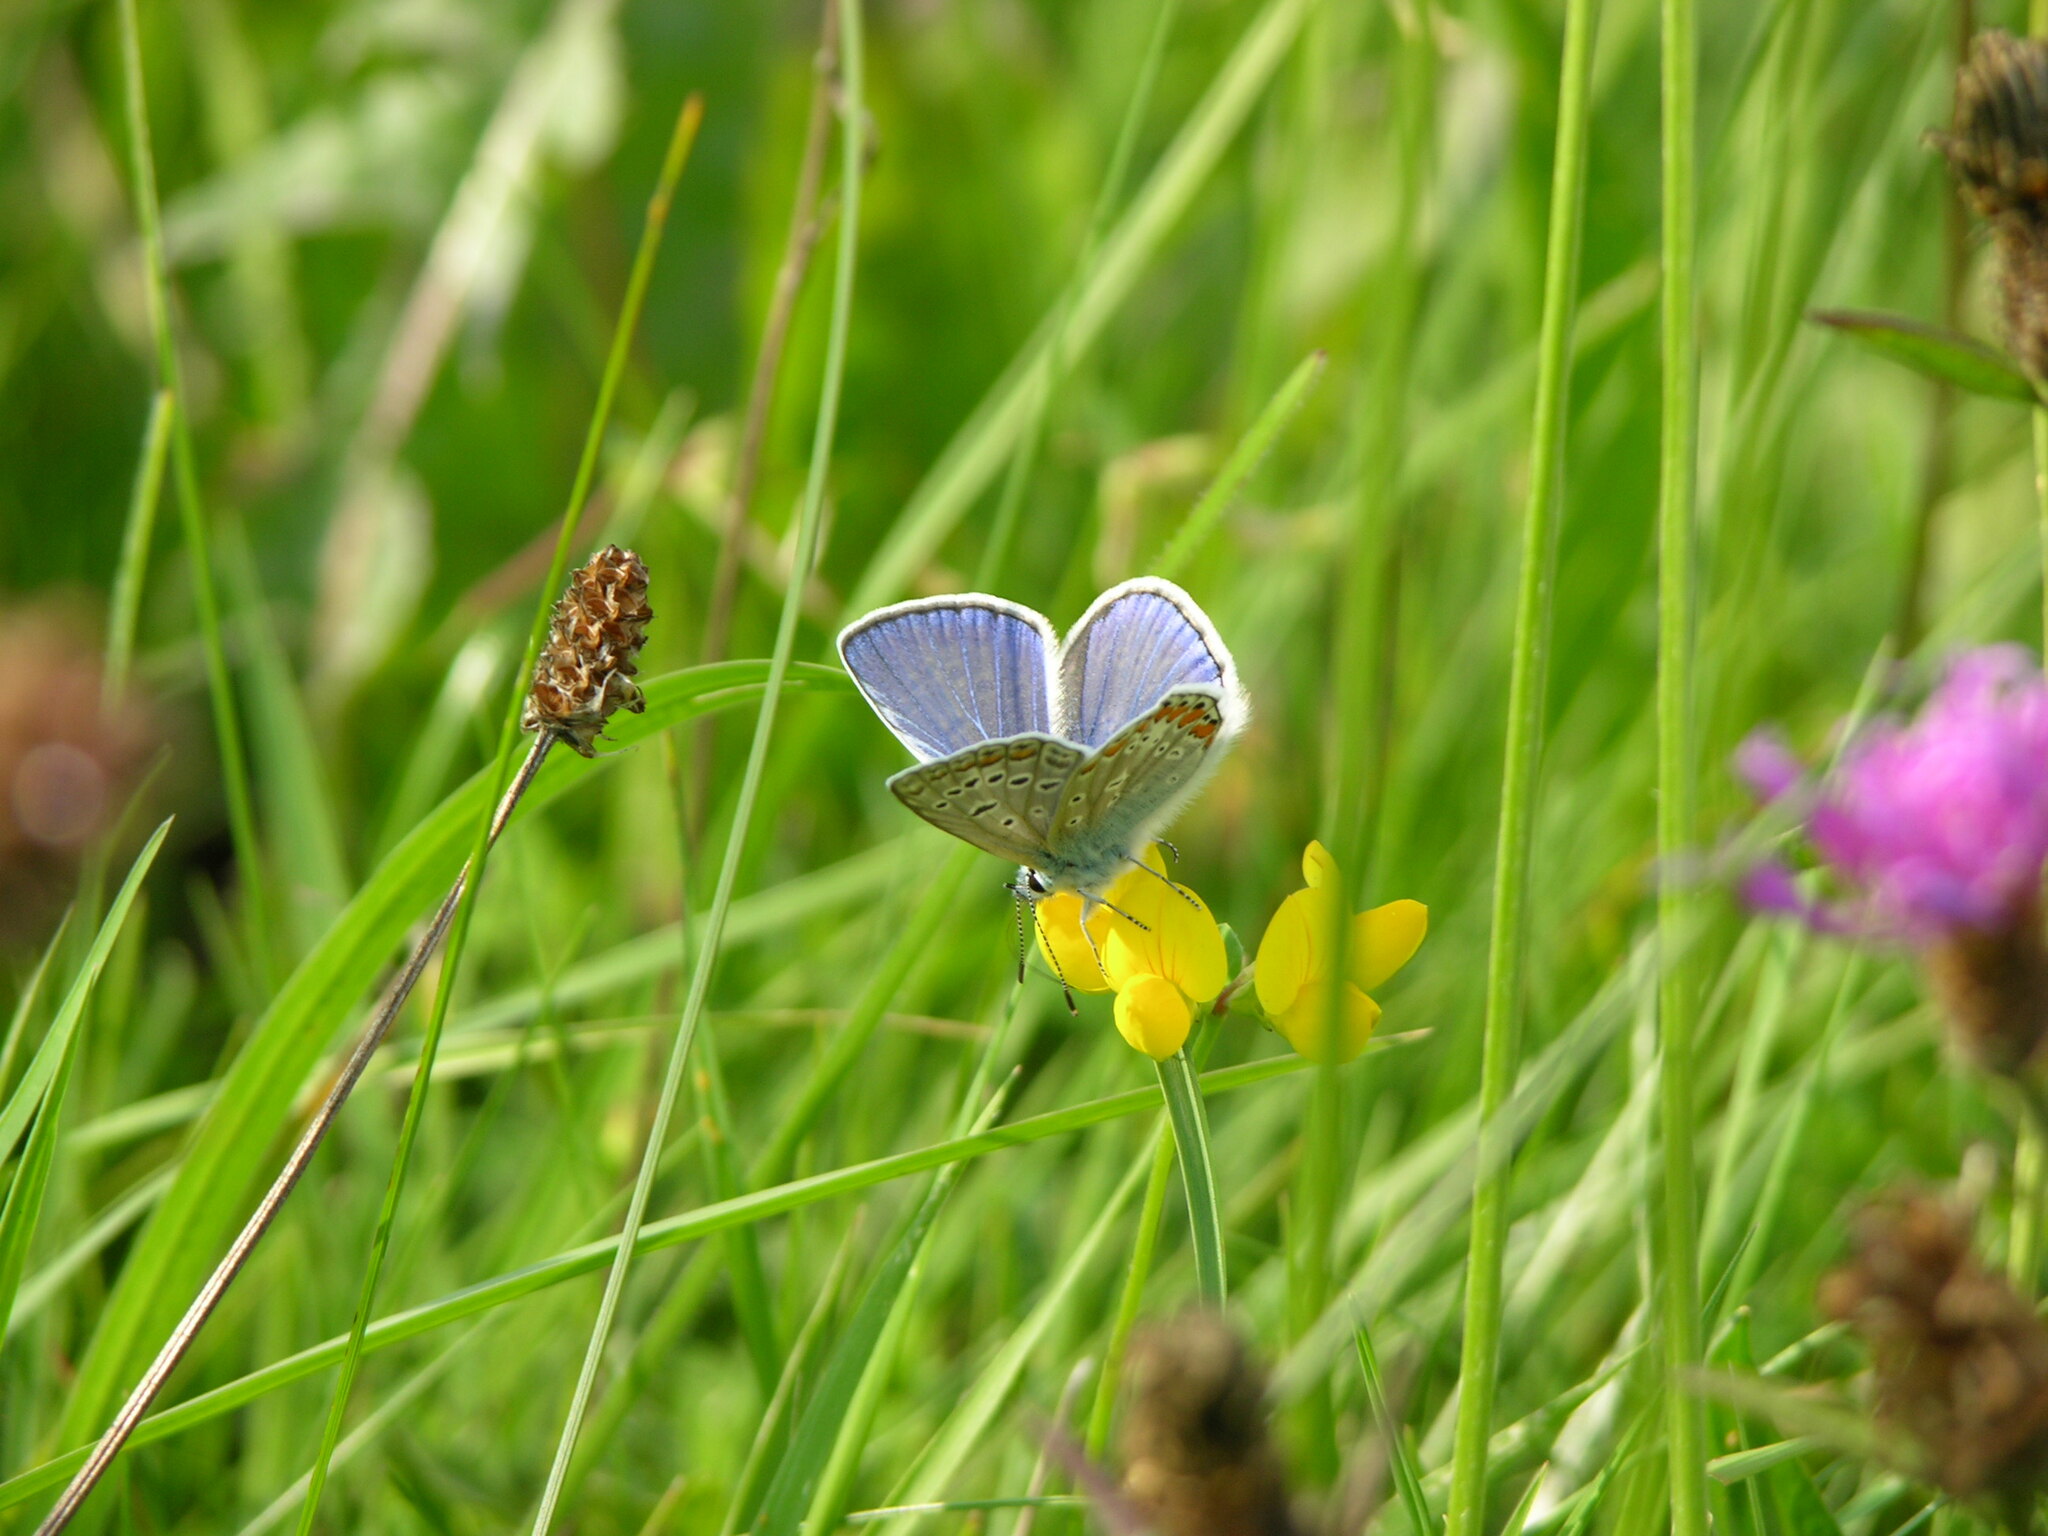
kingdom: Animalia
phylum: Arthropoda
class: Insecta
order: Lepidoptera
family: Lycaenidae
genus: Polyommatus
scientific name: Polyommatus icarus
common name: Common blue
